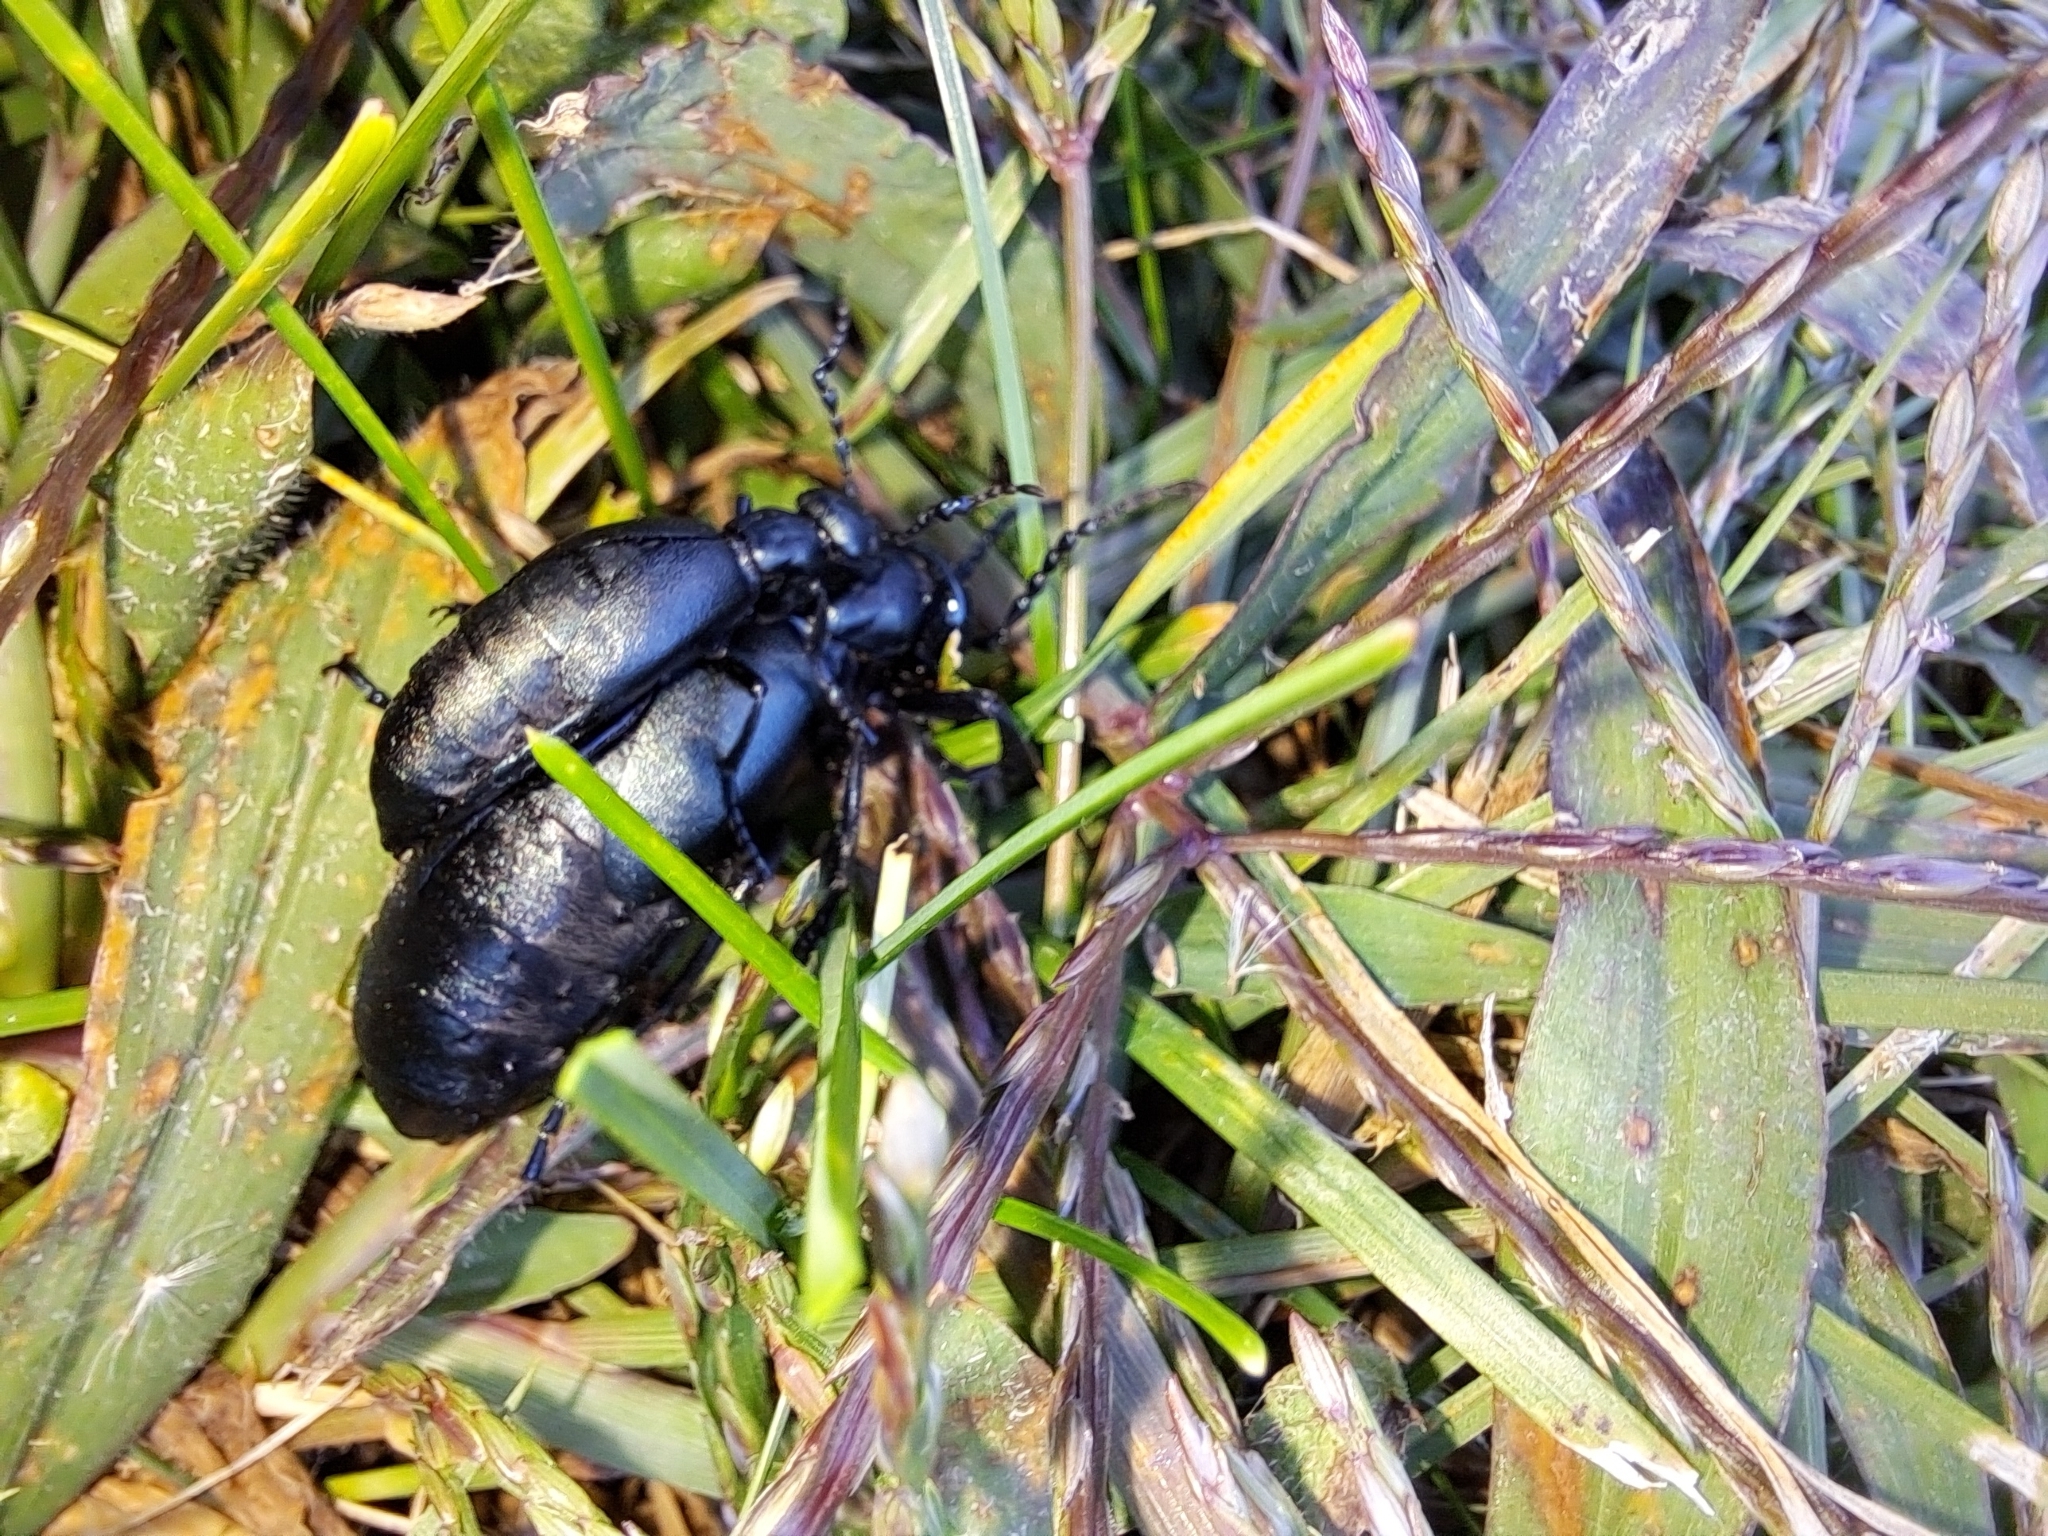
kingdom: Animalia
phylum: Arthropoda
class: Insecta
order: Coleoptera
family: Meloidae
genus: Meloe
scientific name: Meloe campanicollis
